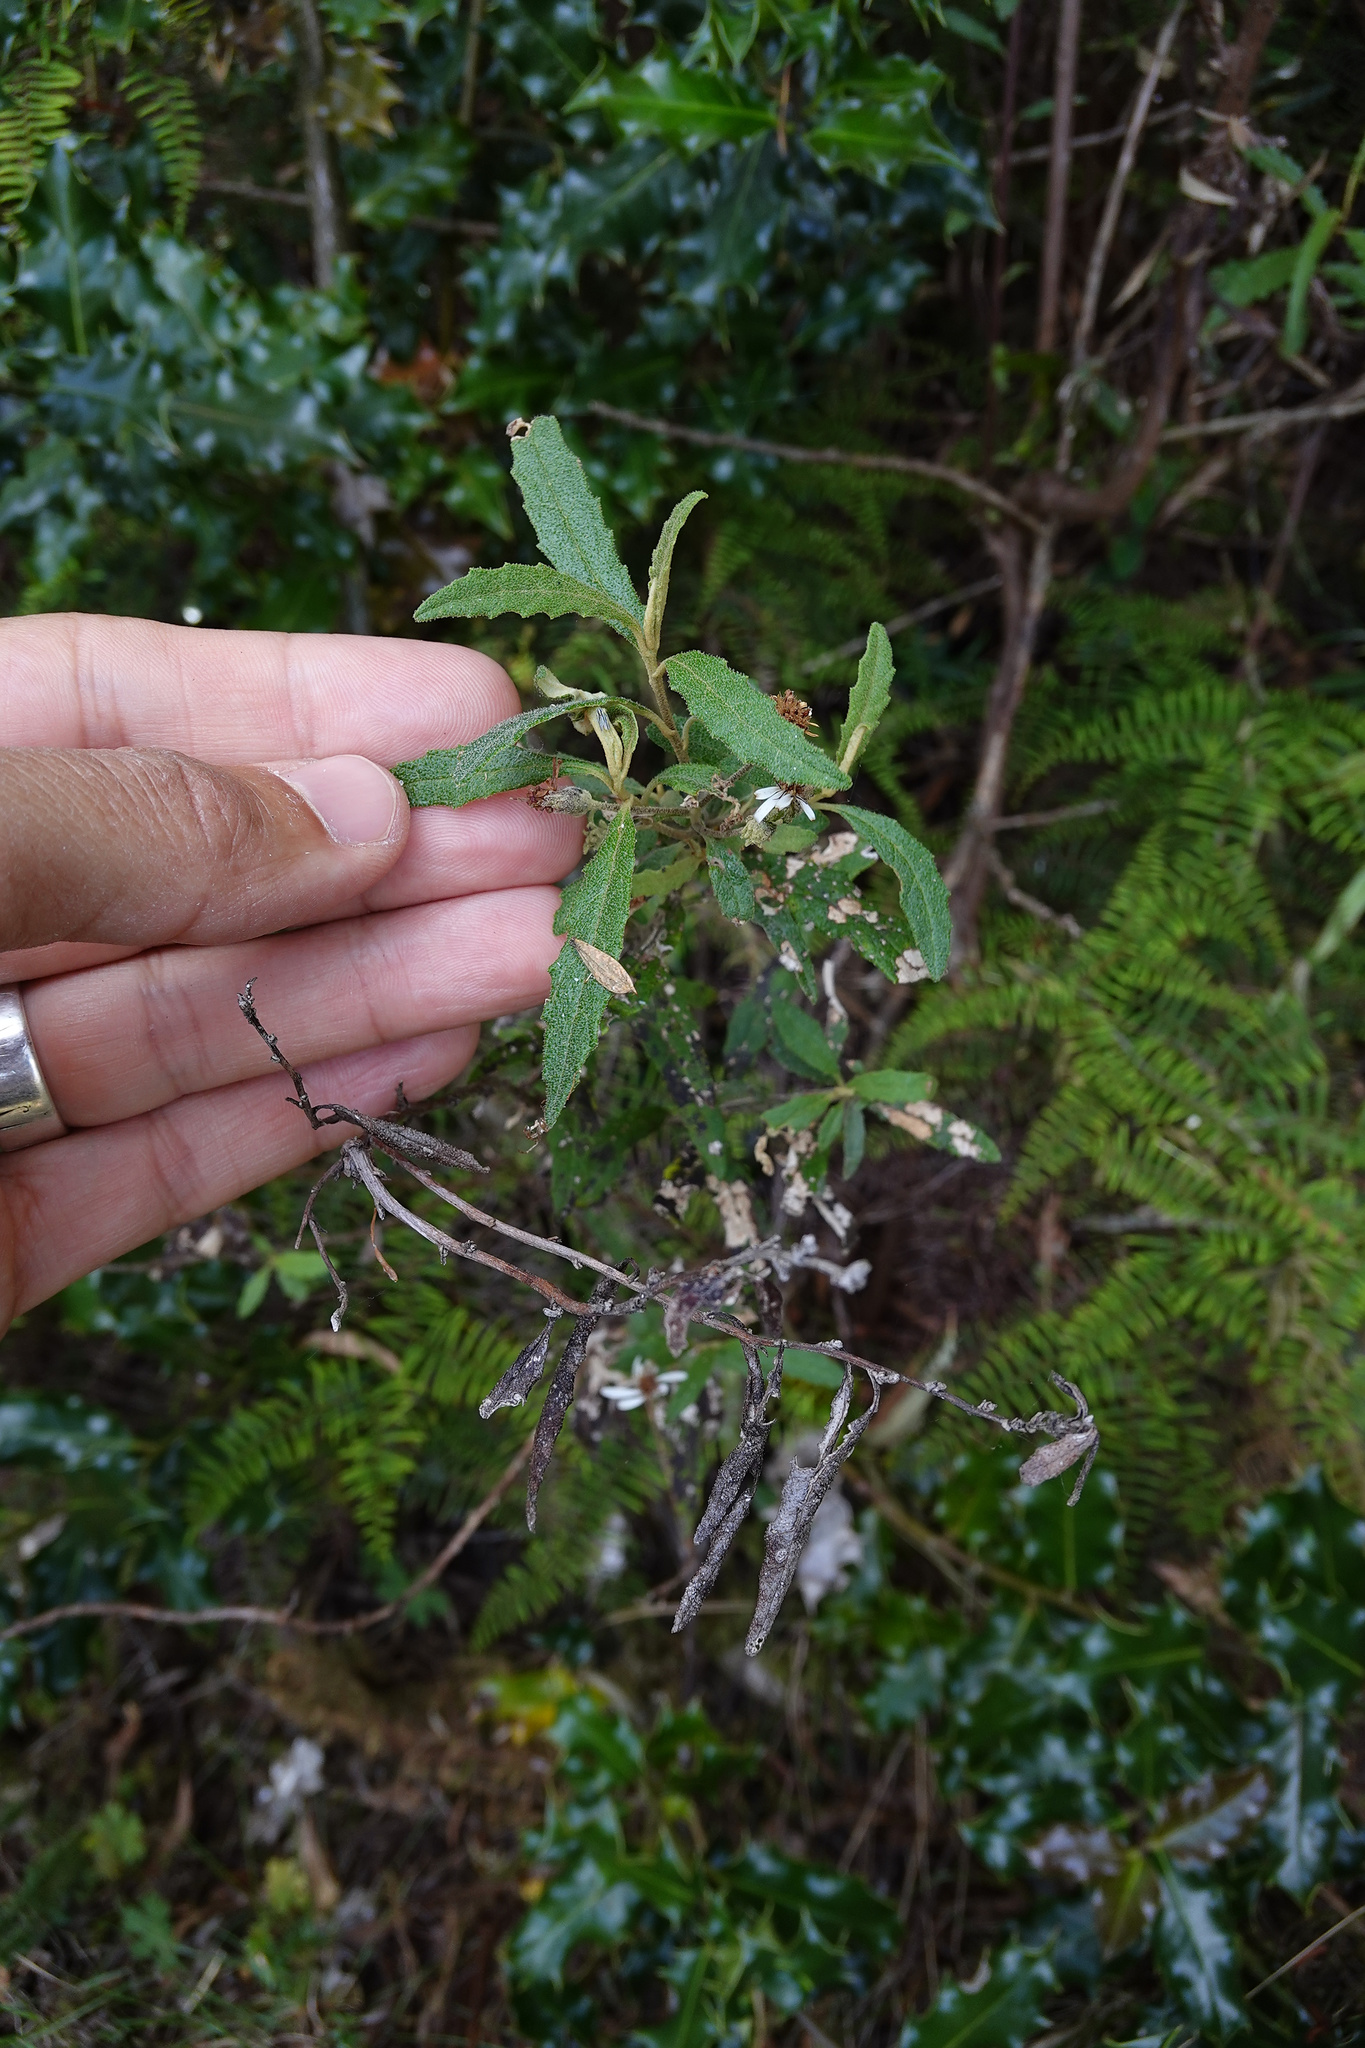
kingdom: Plantae
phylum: Tracheophyta
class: Magnoliopsida
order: Asterales
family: Asteraceae
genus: Olearia
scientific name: Olearia stellulata
